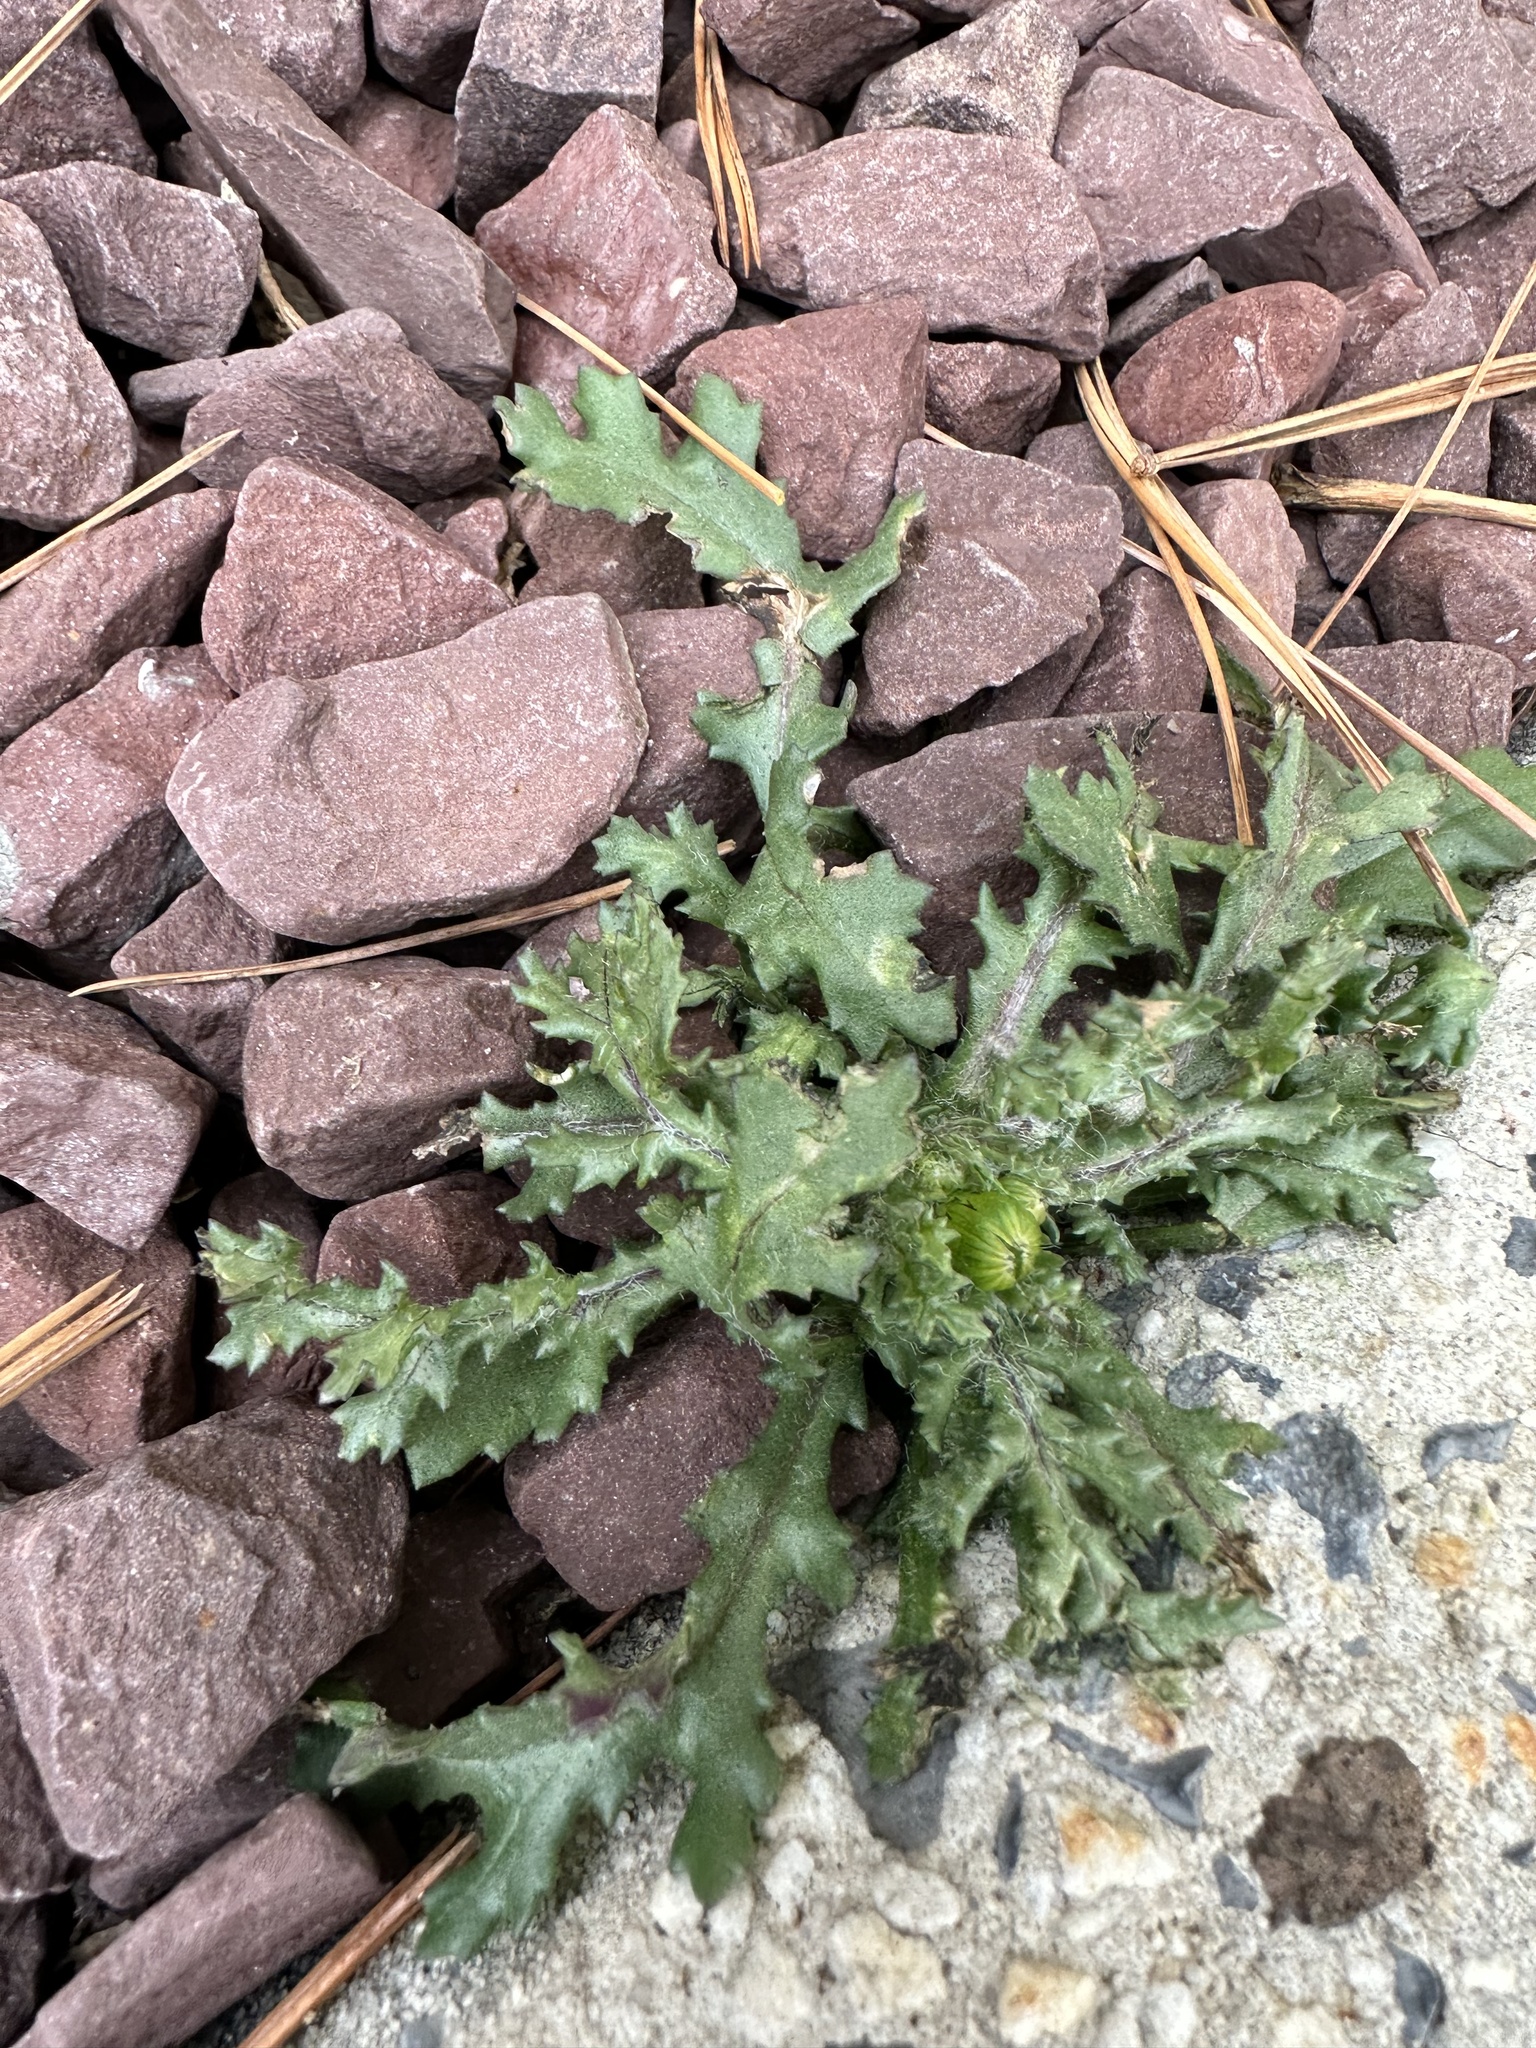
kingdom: Plantae
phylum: Tracheophyta
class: Magnoliopsida
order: Asterales
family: Asteraceae
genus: Senecio
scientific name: Senecio vulgaris
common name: Old-man-in-the-spring
